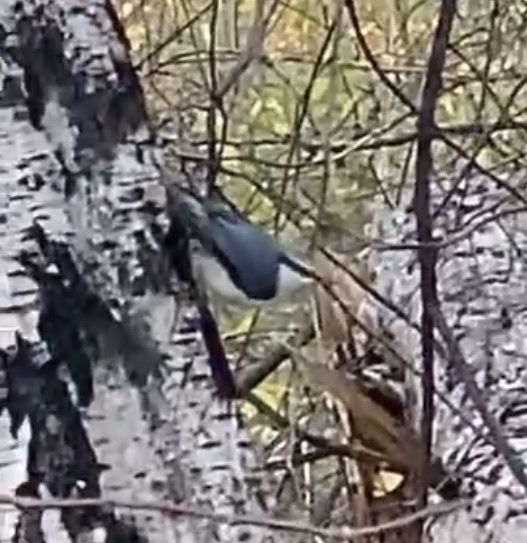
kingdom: Animalia
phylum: Chordata
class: Aves
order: Passeriformes
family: Sittidae
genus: Sitta
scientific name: Sitta europaea
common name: Eurasian nuthatch
